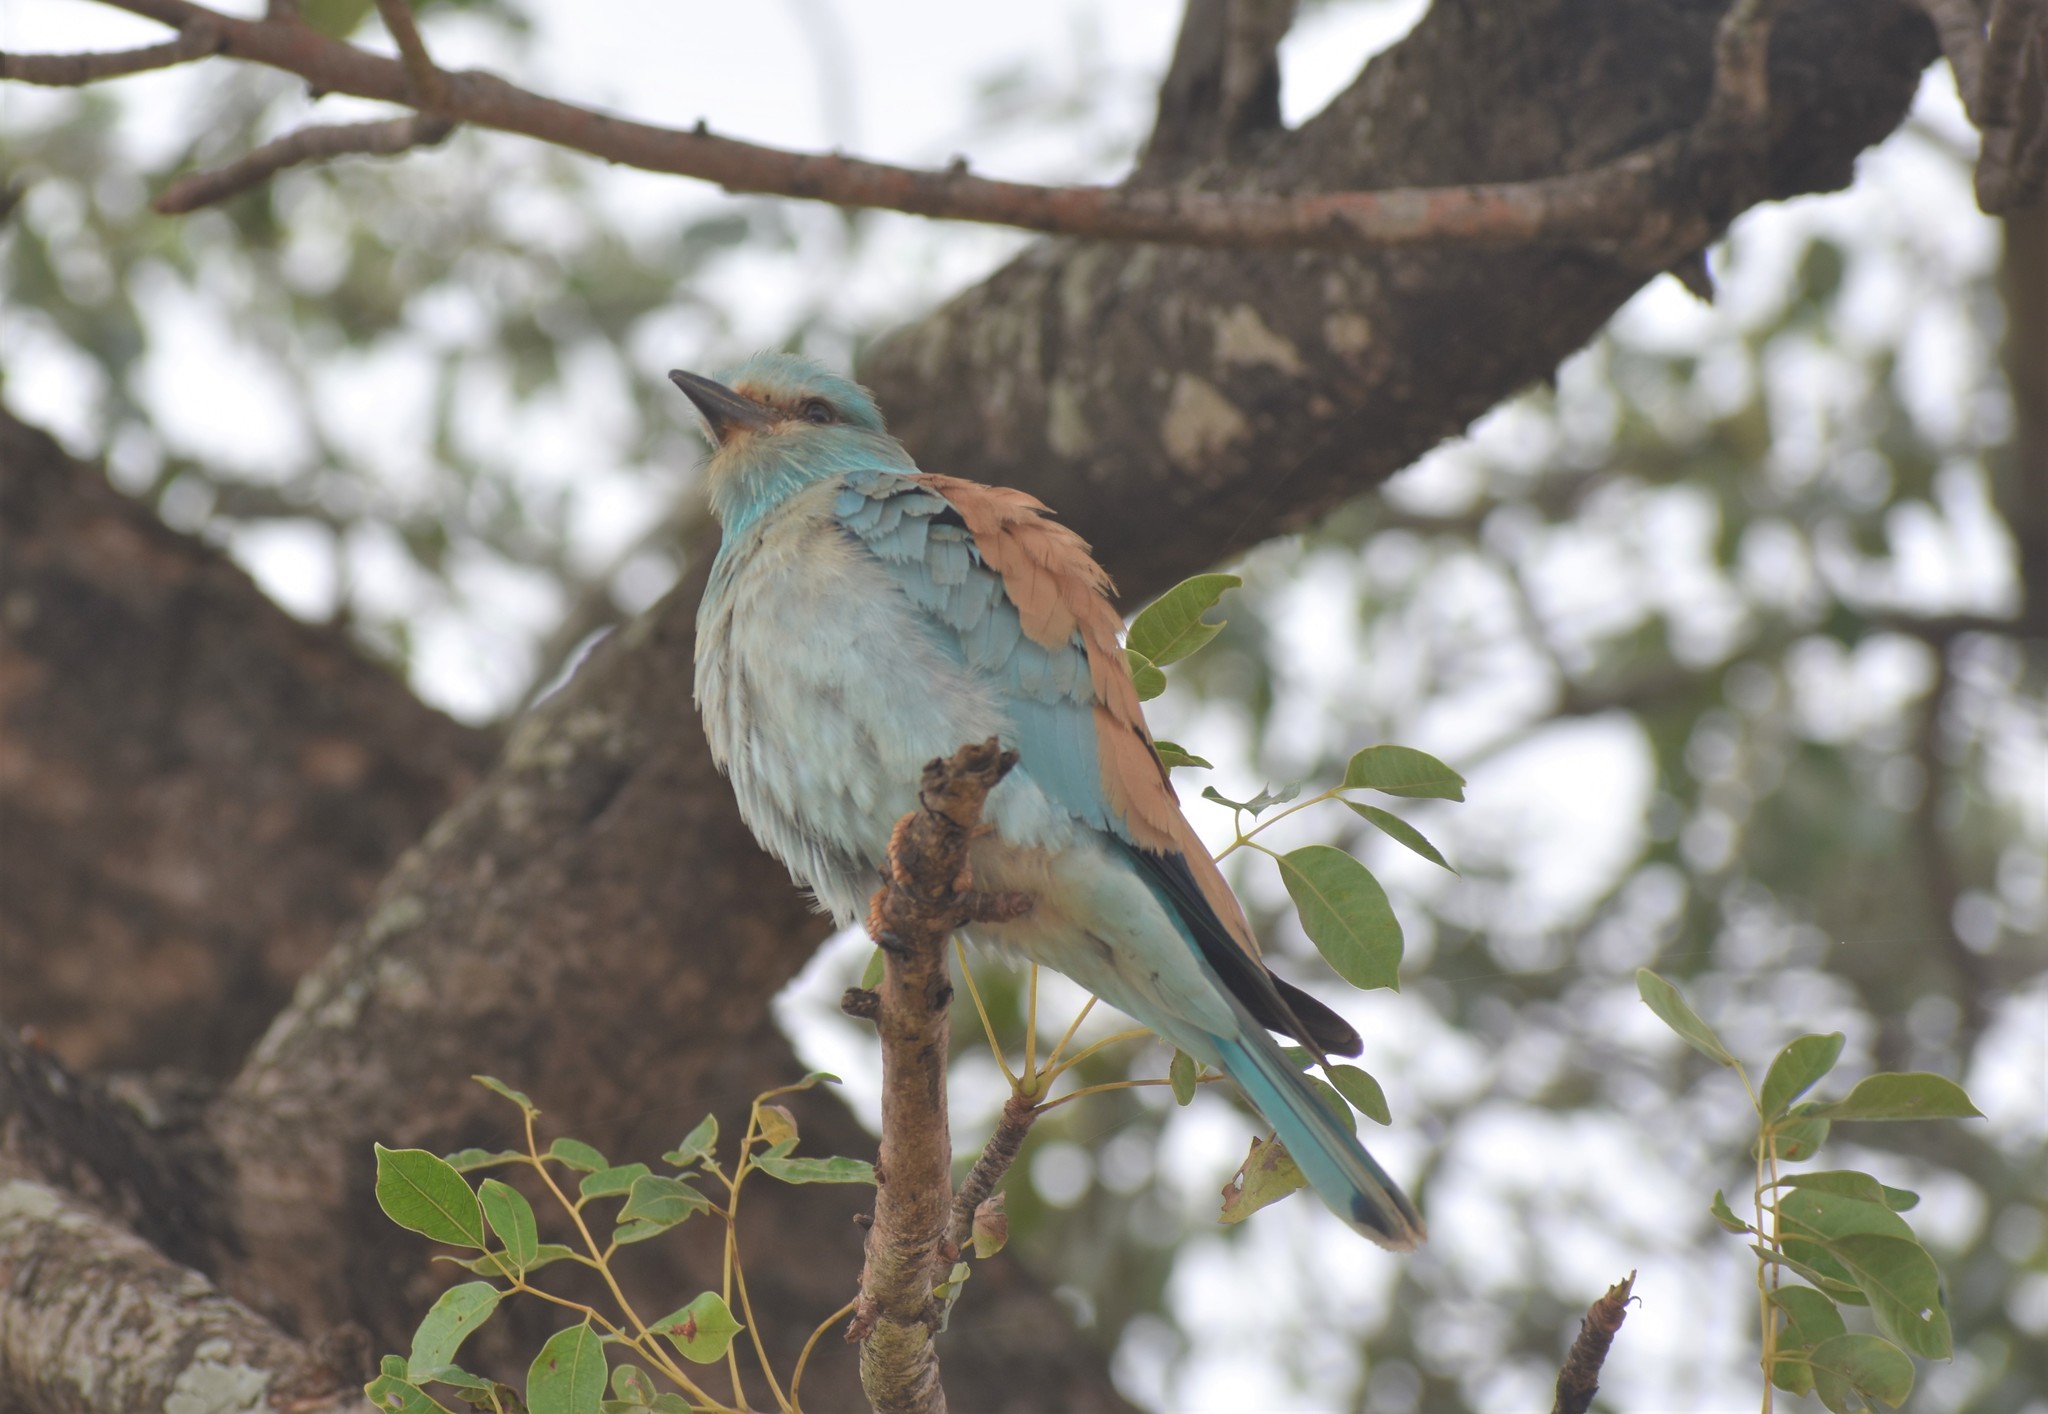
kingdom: Animalia
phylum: Chordata
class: Aves
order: Coraciiformes
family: Coraciidae
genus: Coracias
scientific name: Coracias garrulus
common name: European roller
